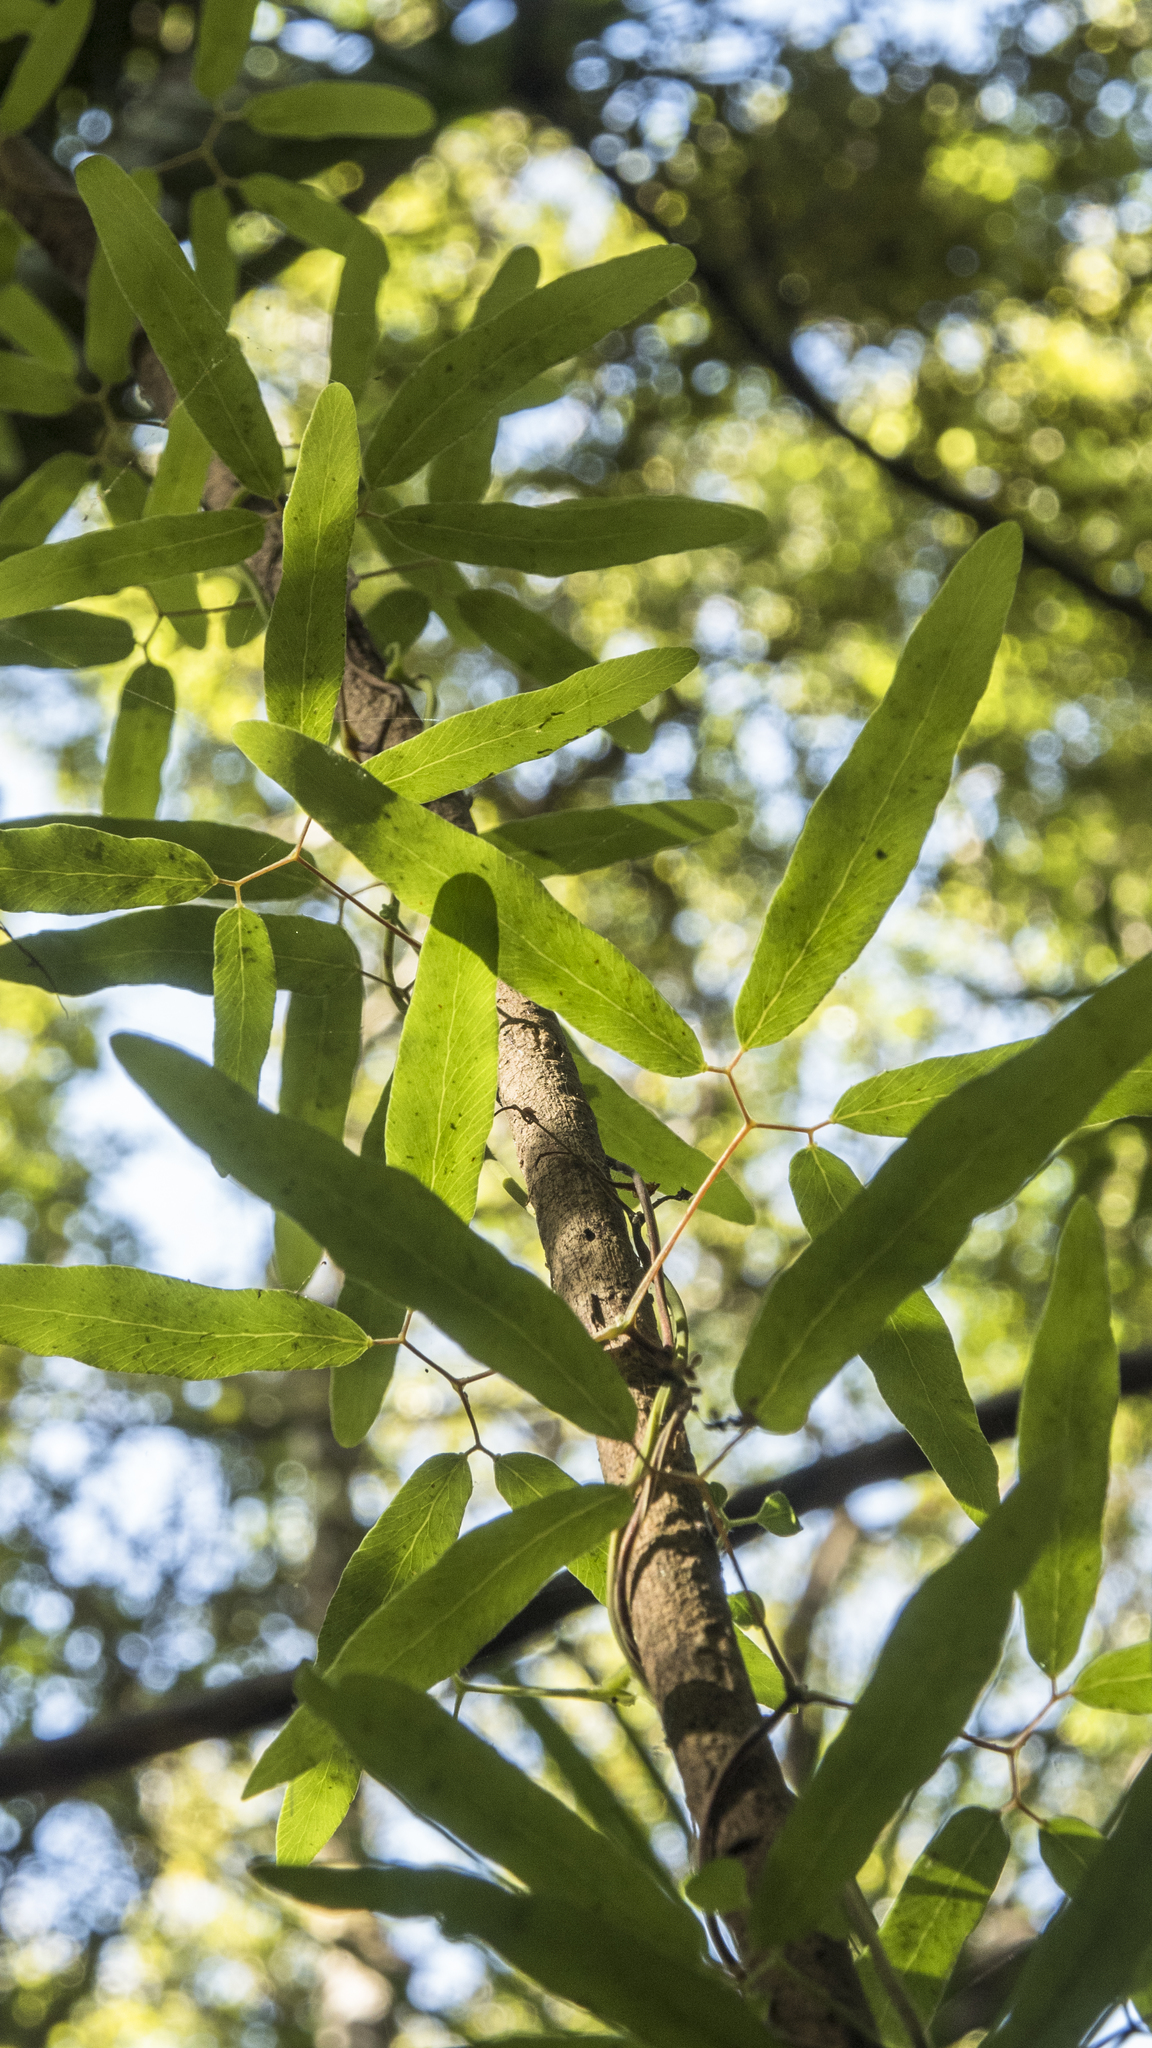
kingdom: Plantae
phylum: Tracheophyta
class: Polypodiopsida
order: Schizaeales
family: Lygodiaceae
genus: Lygodium
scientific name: Lygodium articulatum
